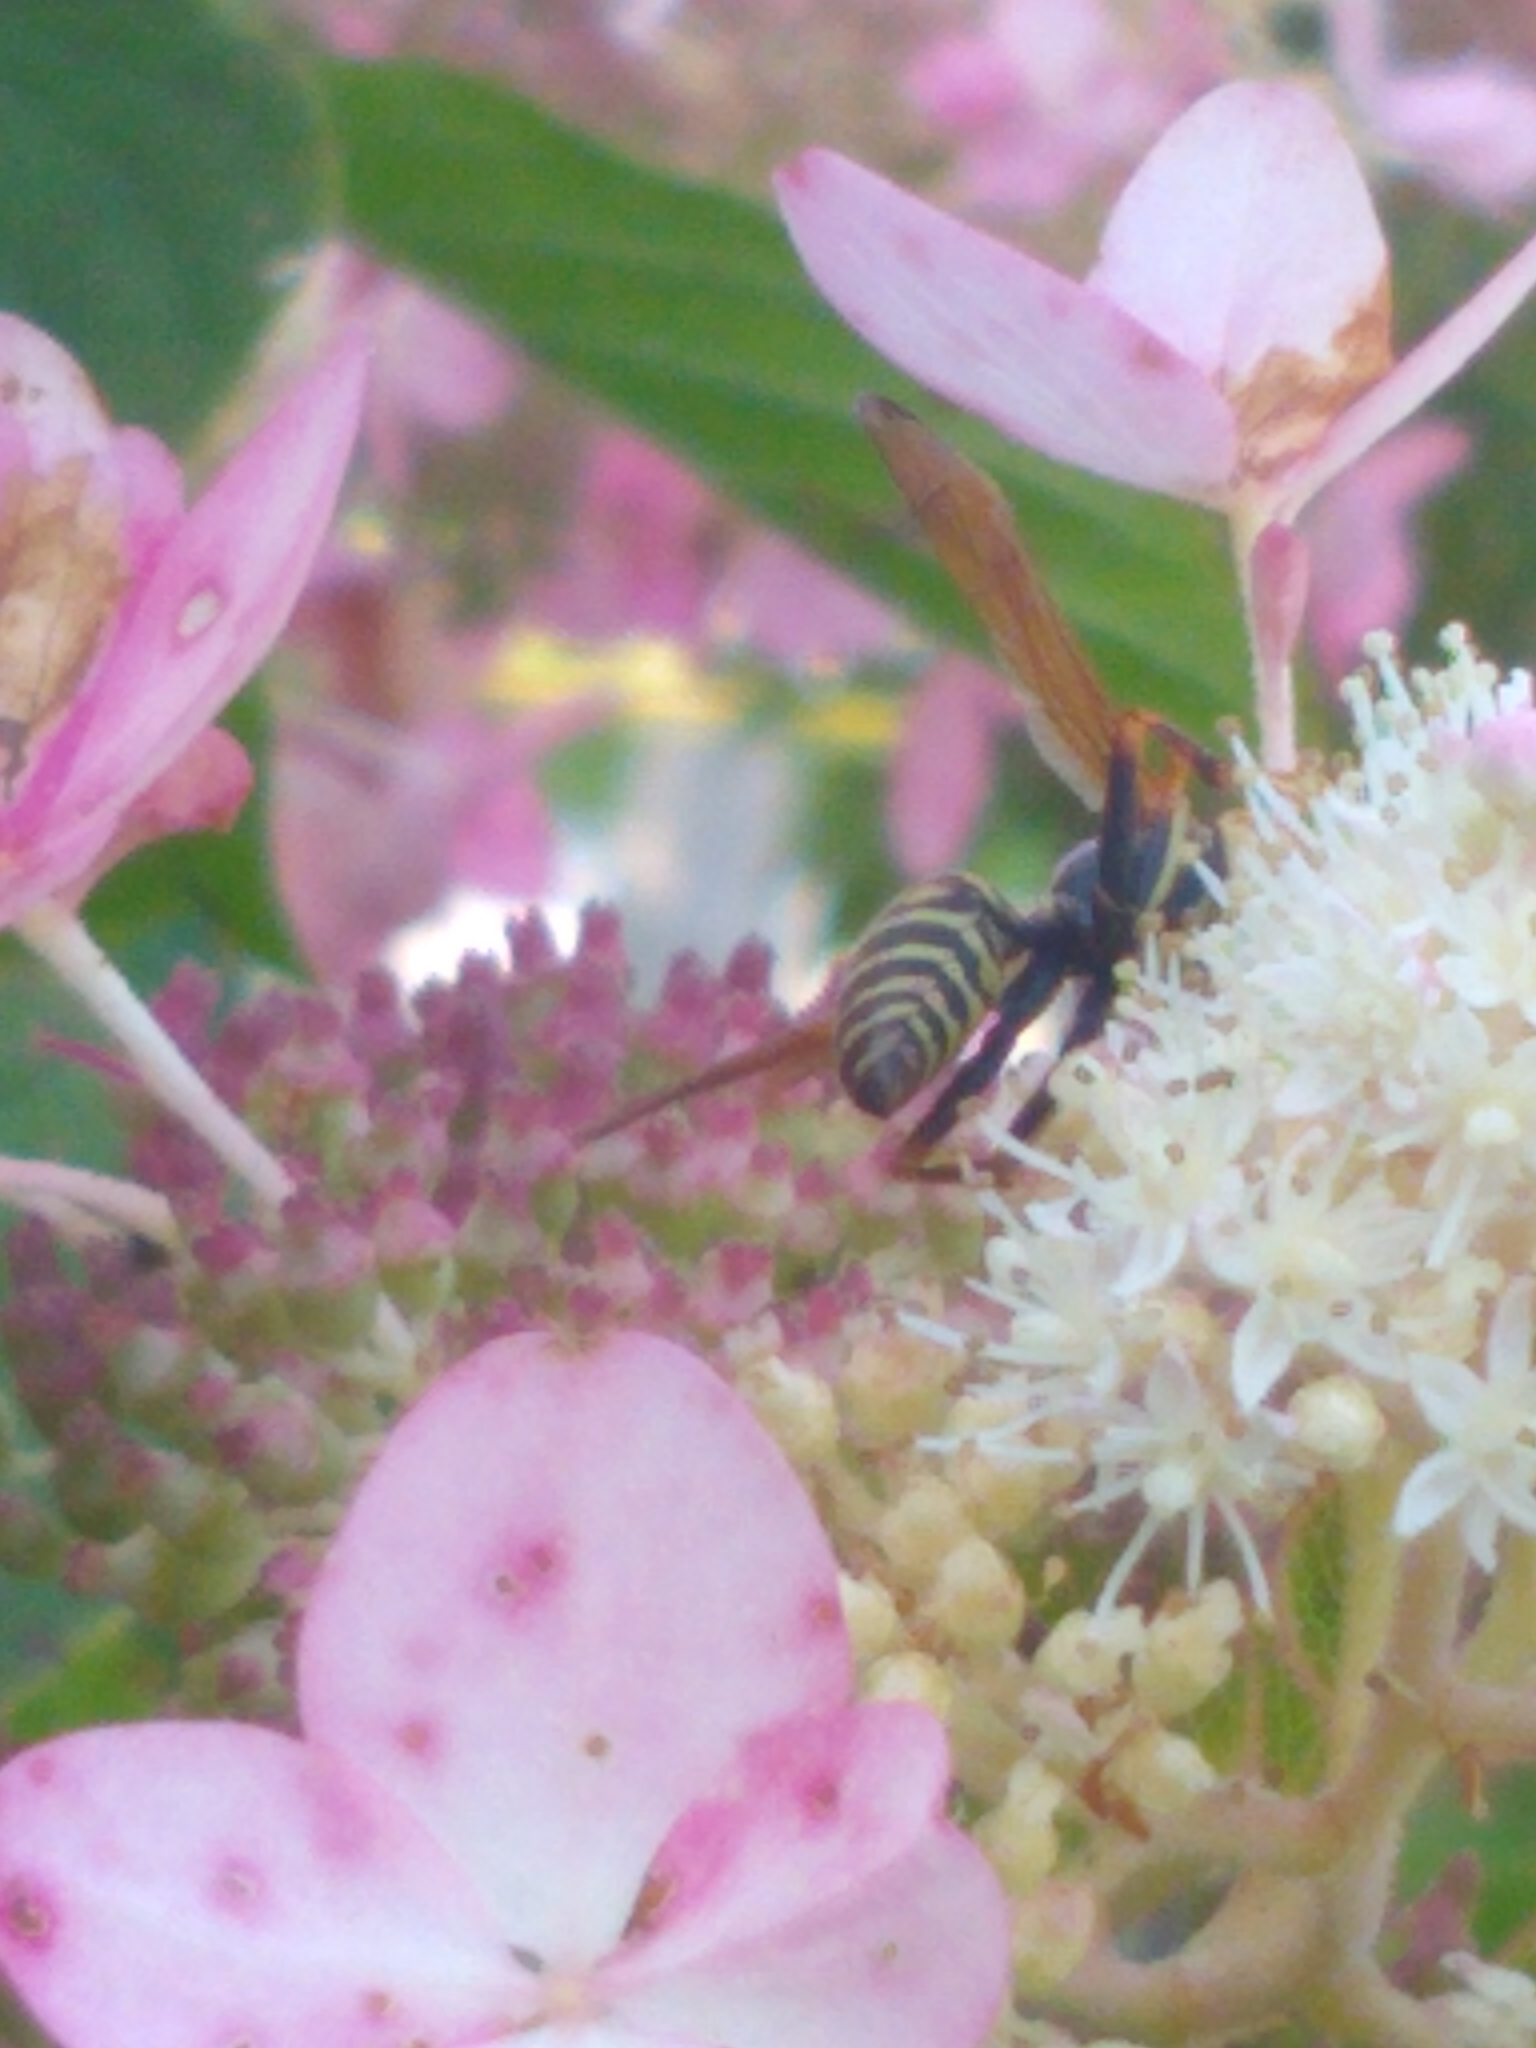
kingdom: Animalia
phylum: Arthropoda
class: Insecta
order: Hymenoptera
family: Eumenidae
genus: Polistes
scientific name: Polistes fuscatus
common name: Dark paper wasp
